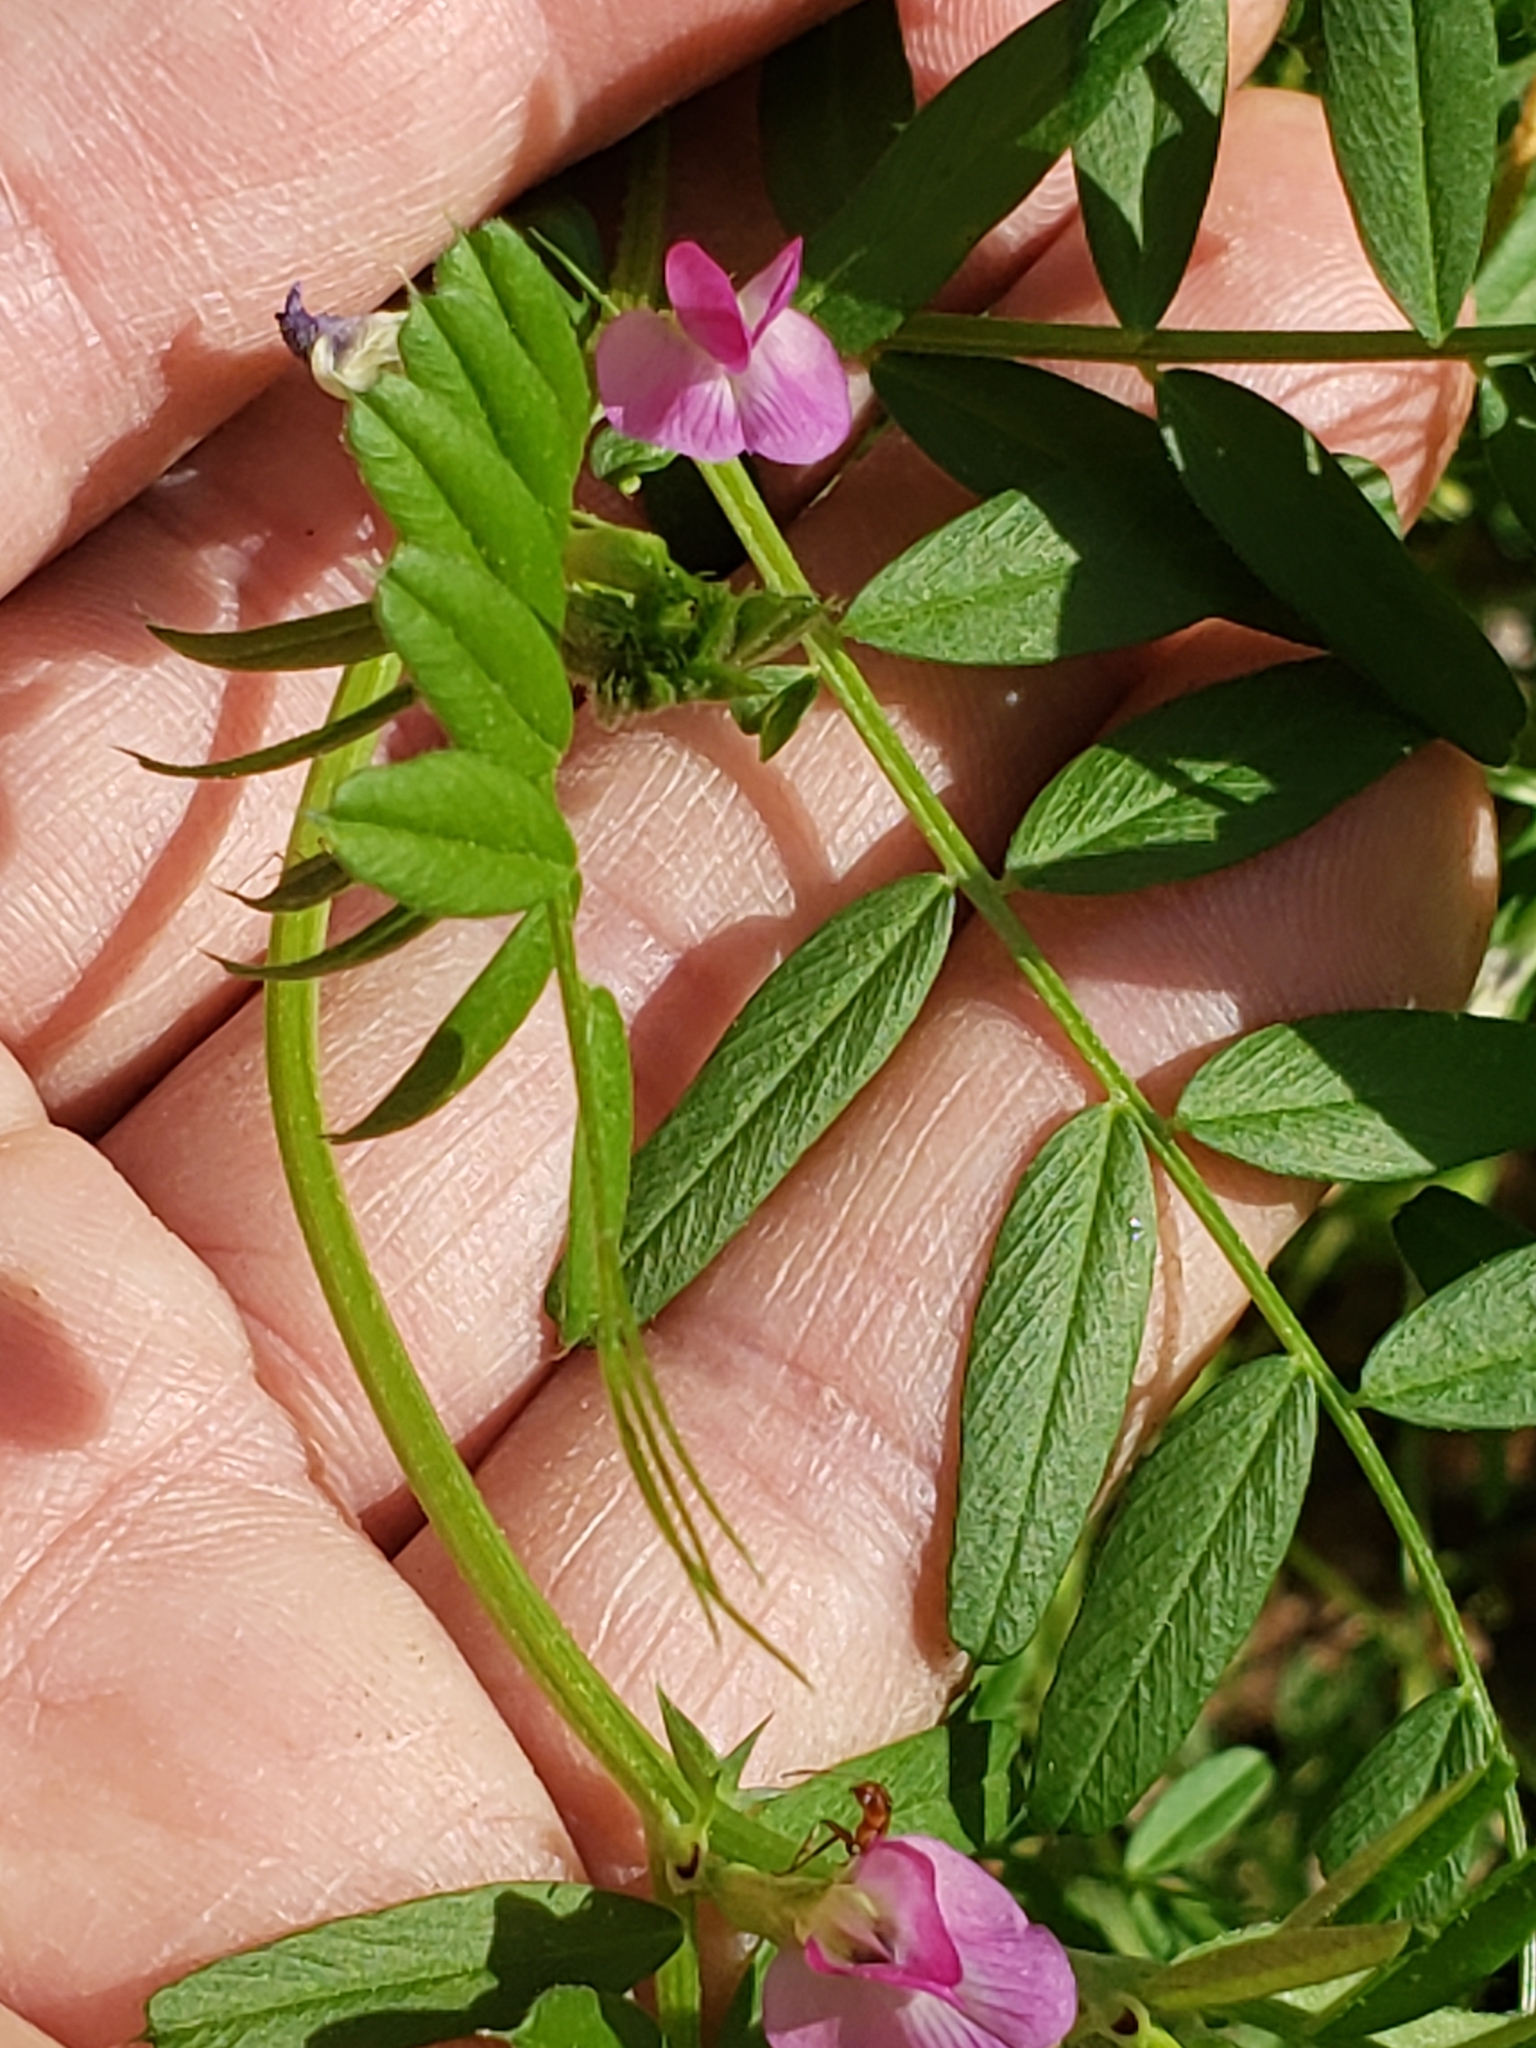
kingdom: Plantae
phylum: Tracheophyta
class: Magnoliopsida
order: Fabales
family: Fabaceae
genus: Vicia
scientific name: Vicia sativa
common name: Garden vetch
